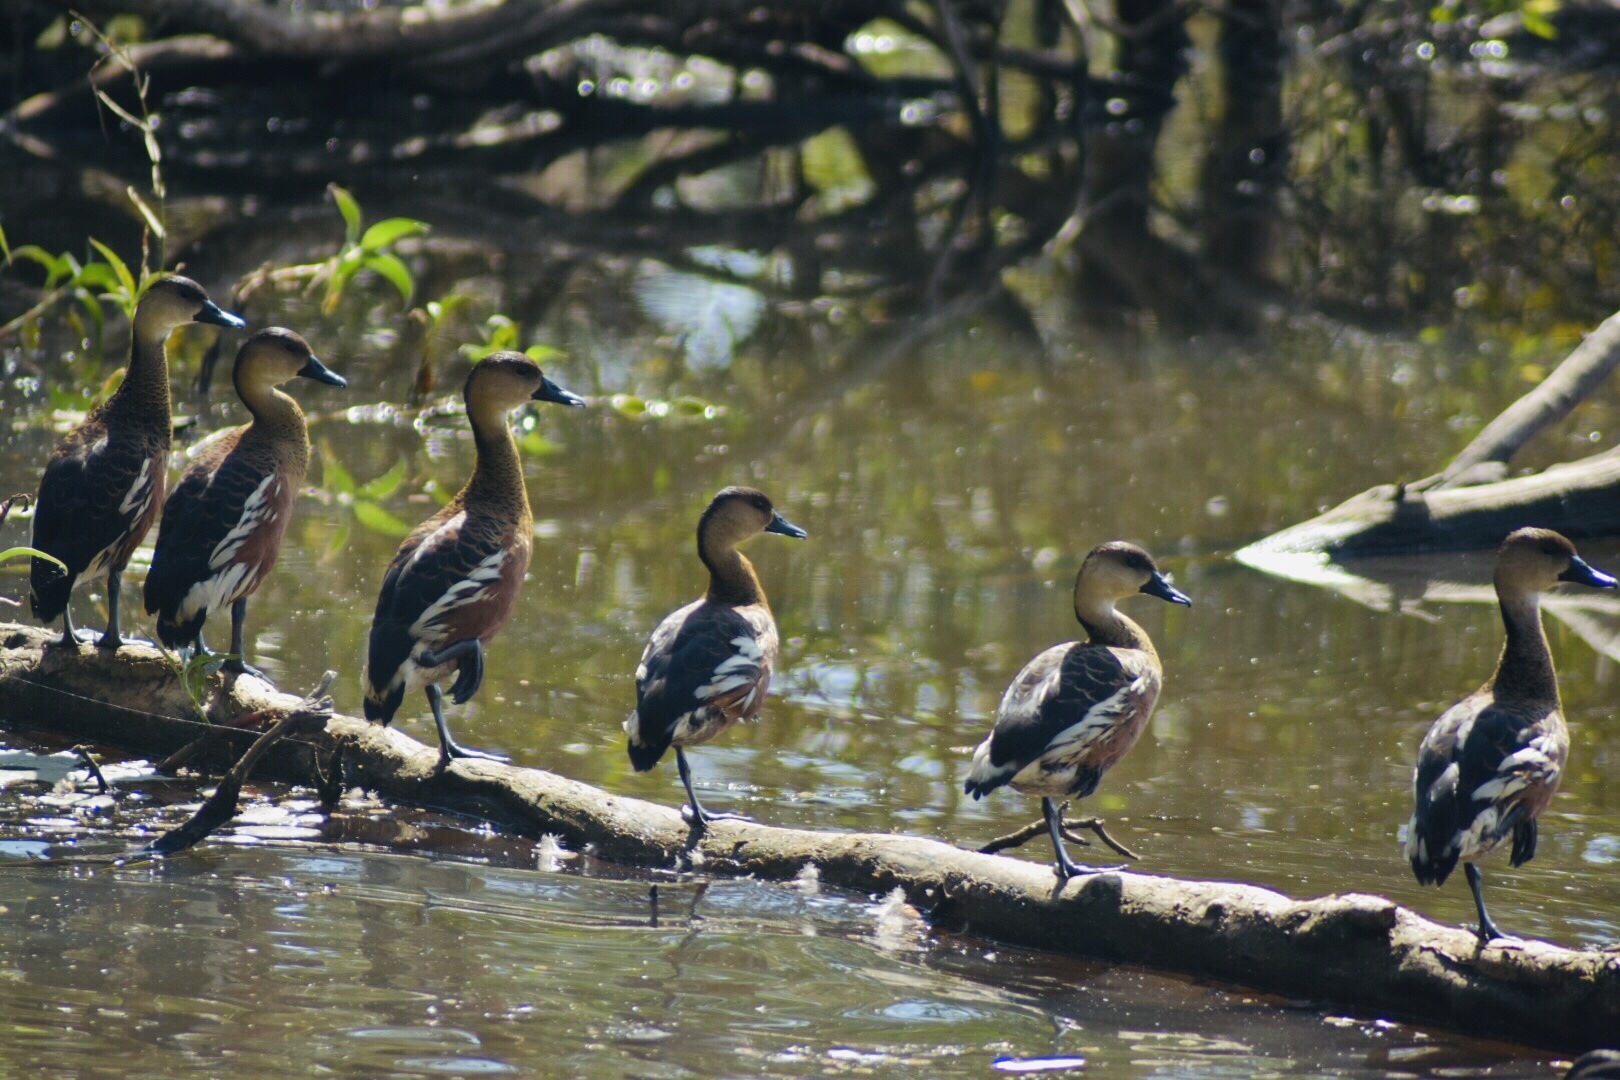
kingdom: Animalia
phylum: Chordata
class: Aves
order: Anseriformes
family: Anatidae
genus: Dendrocygna
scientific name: Dendrocygna arcuata
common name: Wandering whistling-duck
